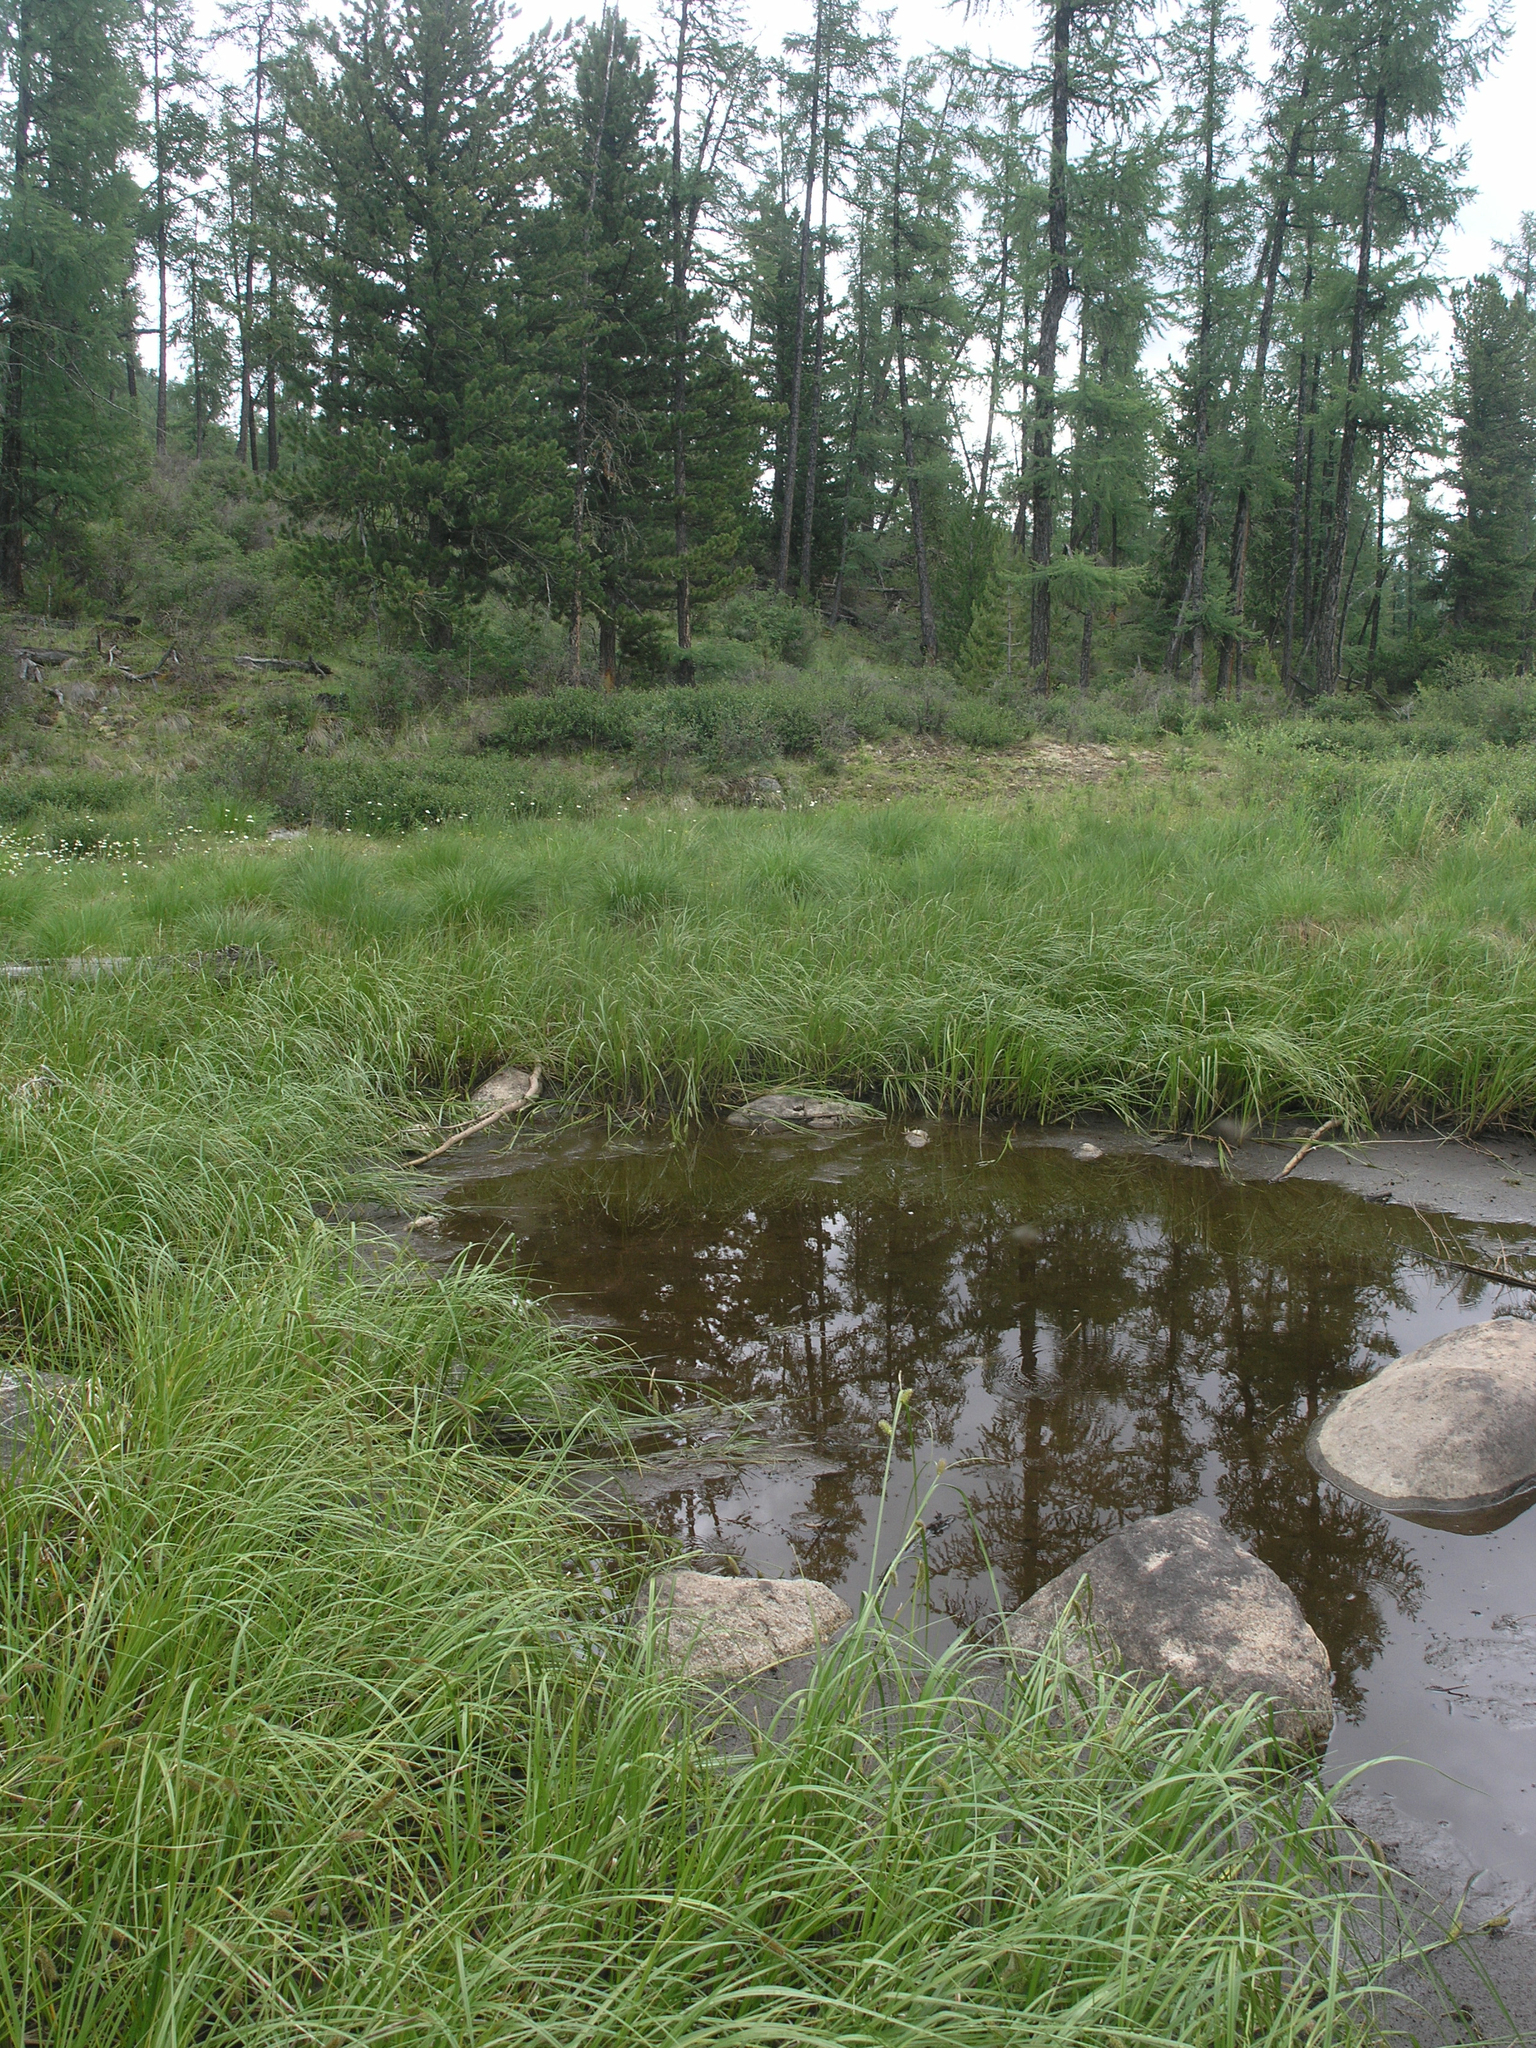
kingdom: Plantae
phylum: Tracheophyta
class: Pinopsida
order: Pinales
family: Pinaceae
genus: Pinus
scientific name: Pinus sibirica
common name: Siberian pine
